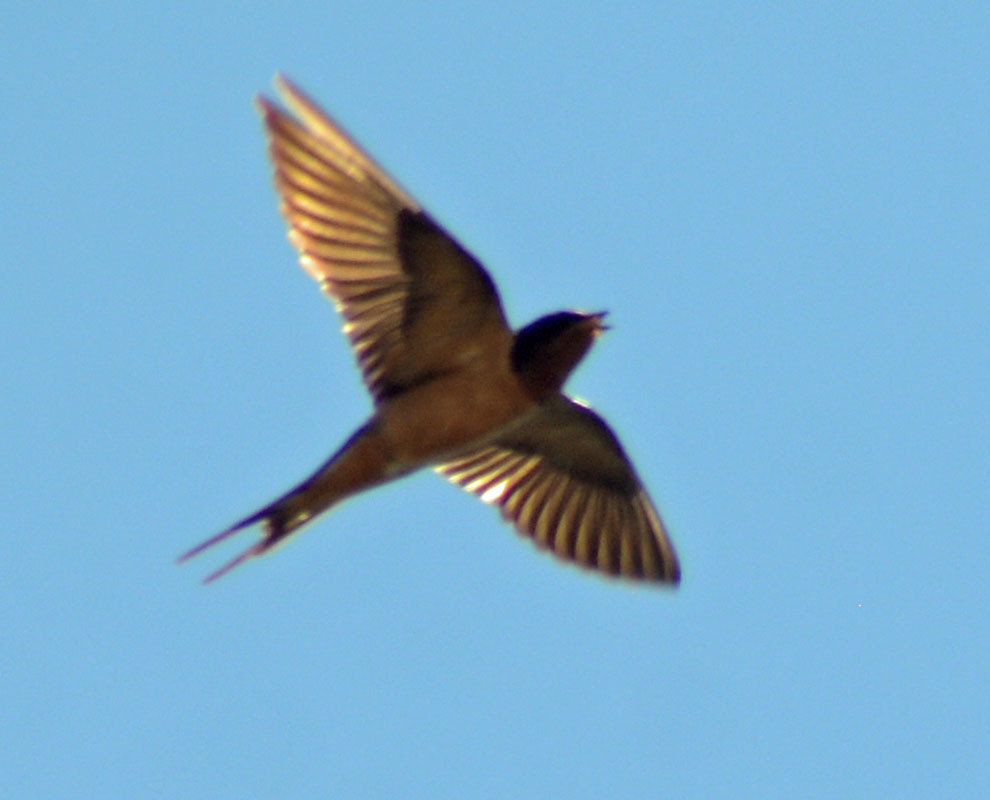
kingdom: Animalia
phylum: Chordata
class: Aves
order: Passeriformes
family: Hirundinidae
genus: Hirundo
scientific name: Hirundo rustica
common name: Barn swallow
